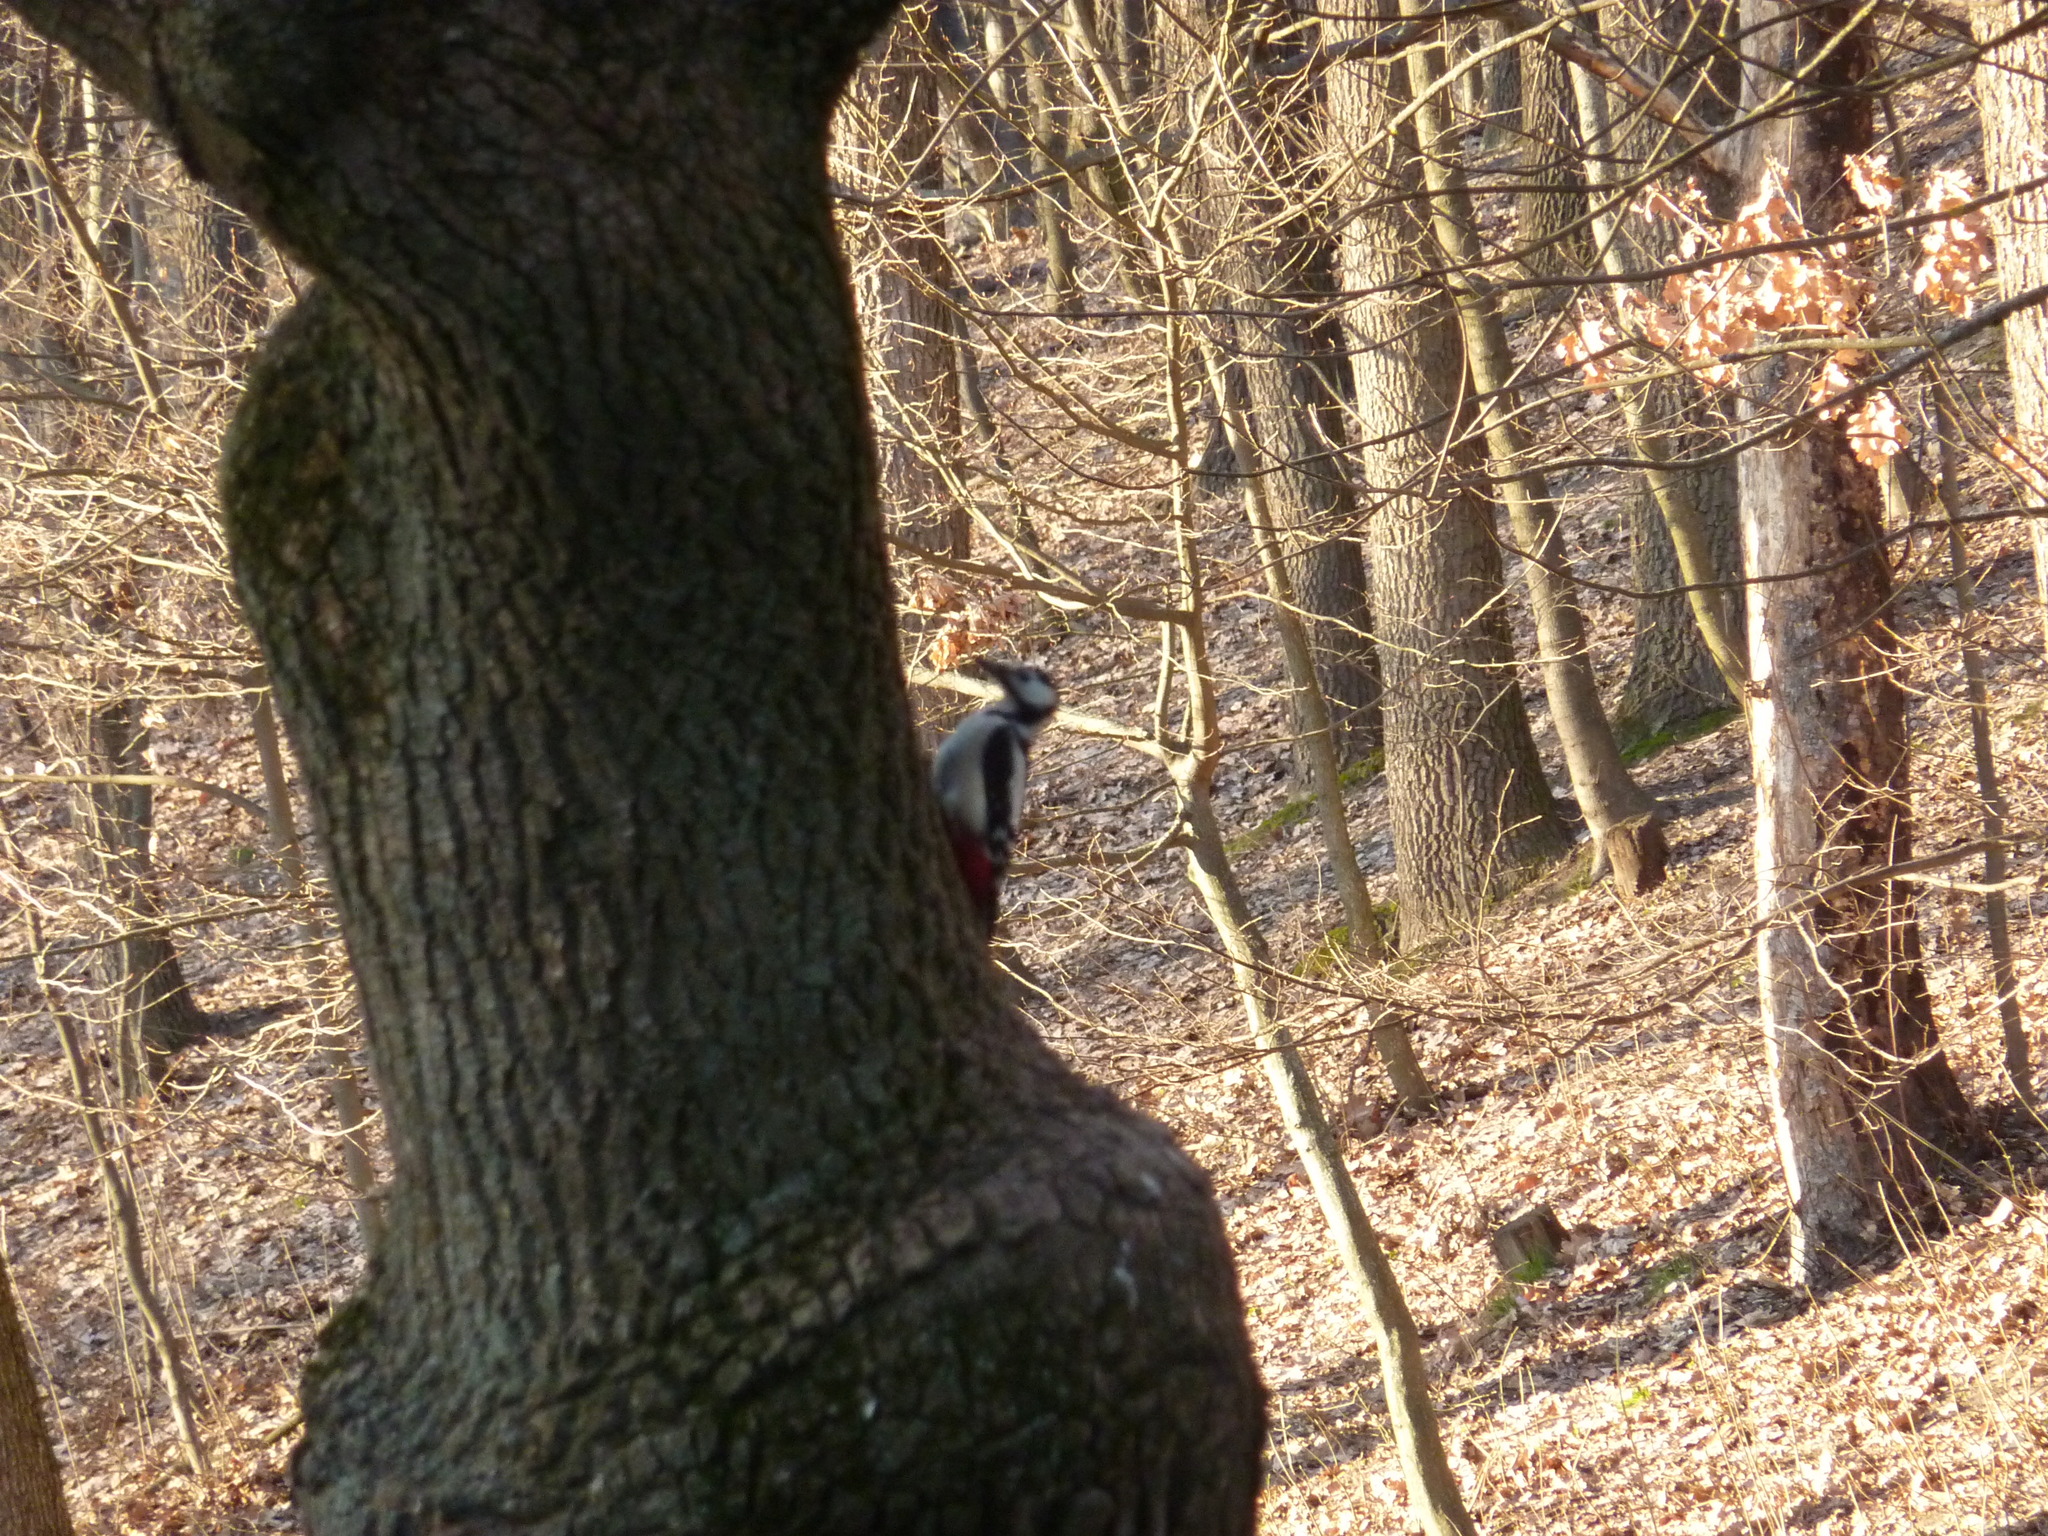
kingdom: Animalia
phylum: Chordata
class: Aves
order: Piciformes
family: Picidae
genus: Dendrocopos
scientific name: Dendrocopos major
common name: Great spotted woodpecker
